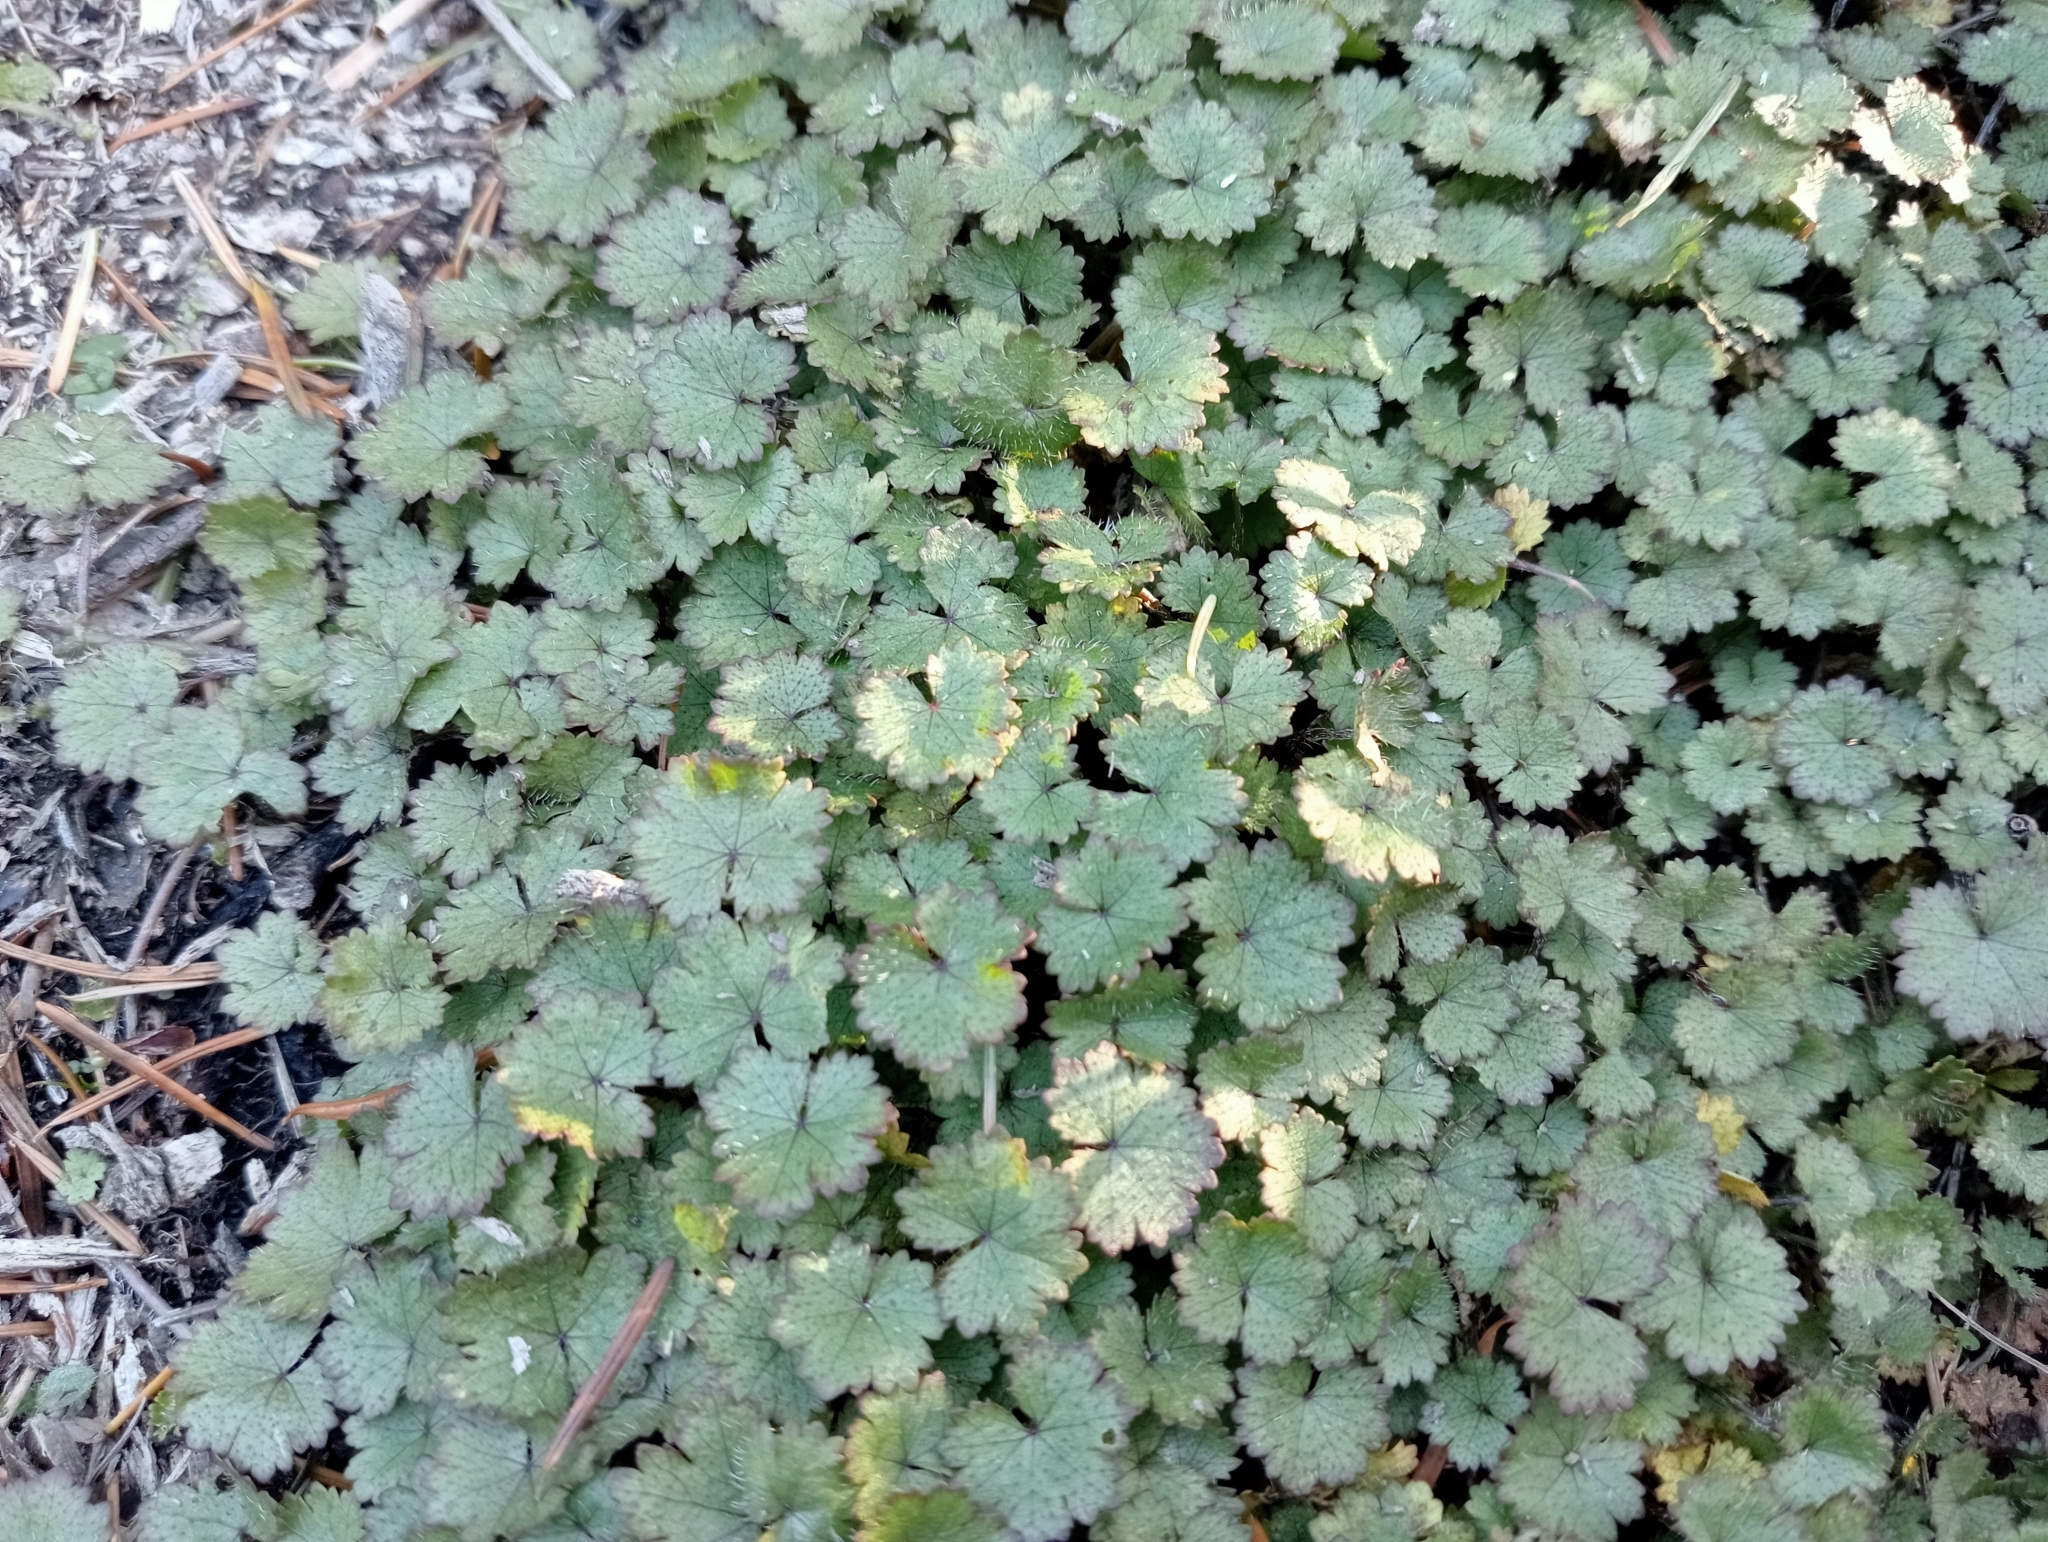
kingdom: Plantae
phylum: Tracheophyta
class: Magnoliopsida
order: Apiales
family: Araliaceae
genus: Hydrocotyle
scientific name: Hydrocotyle moschata
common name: Hairy pennywort
